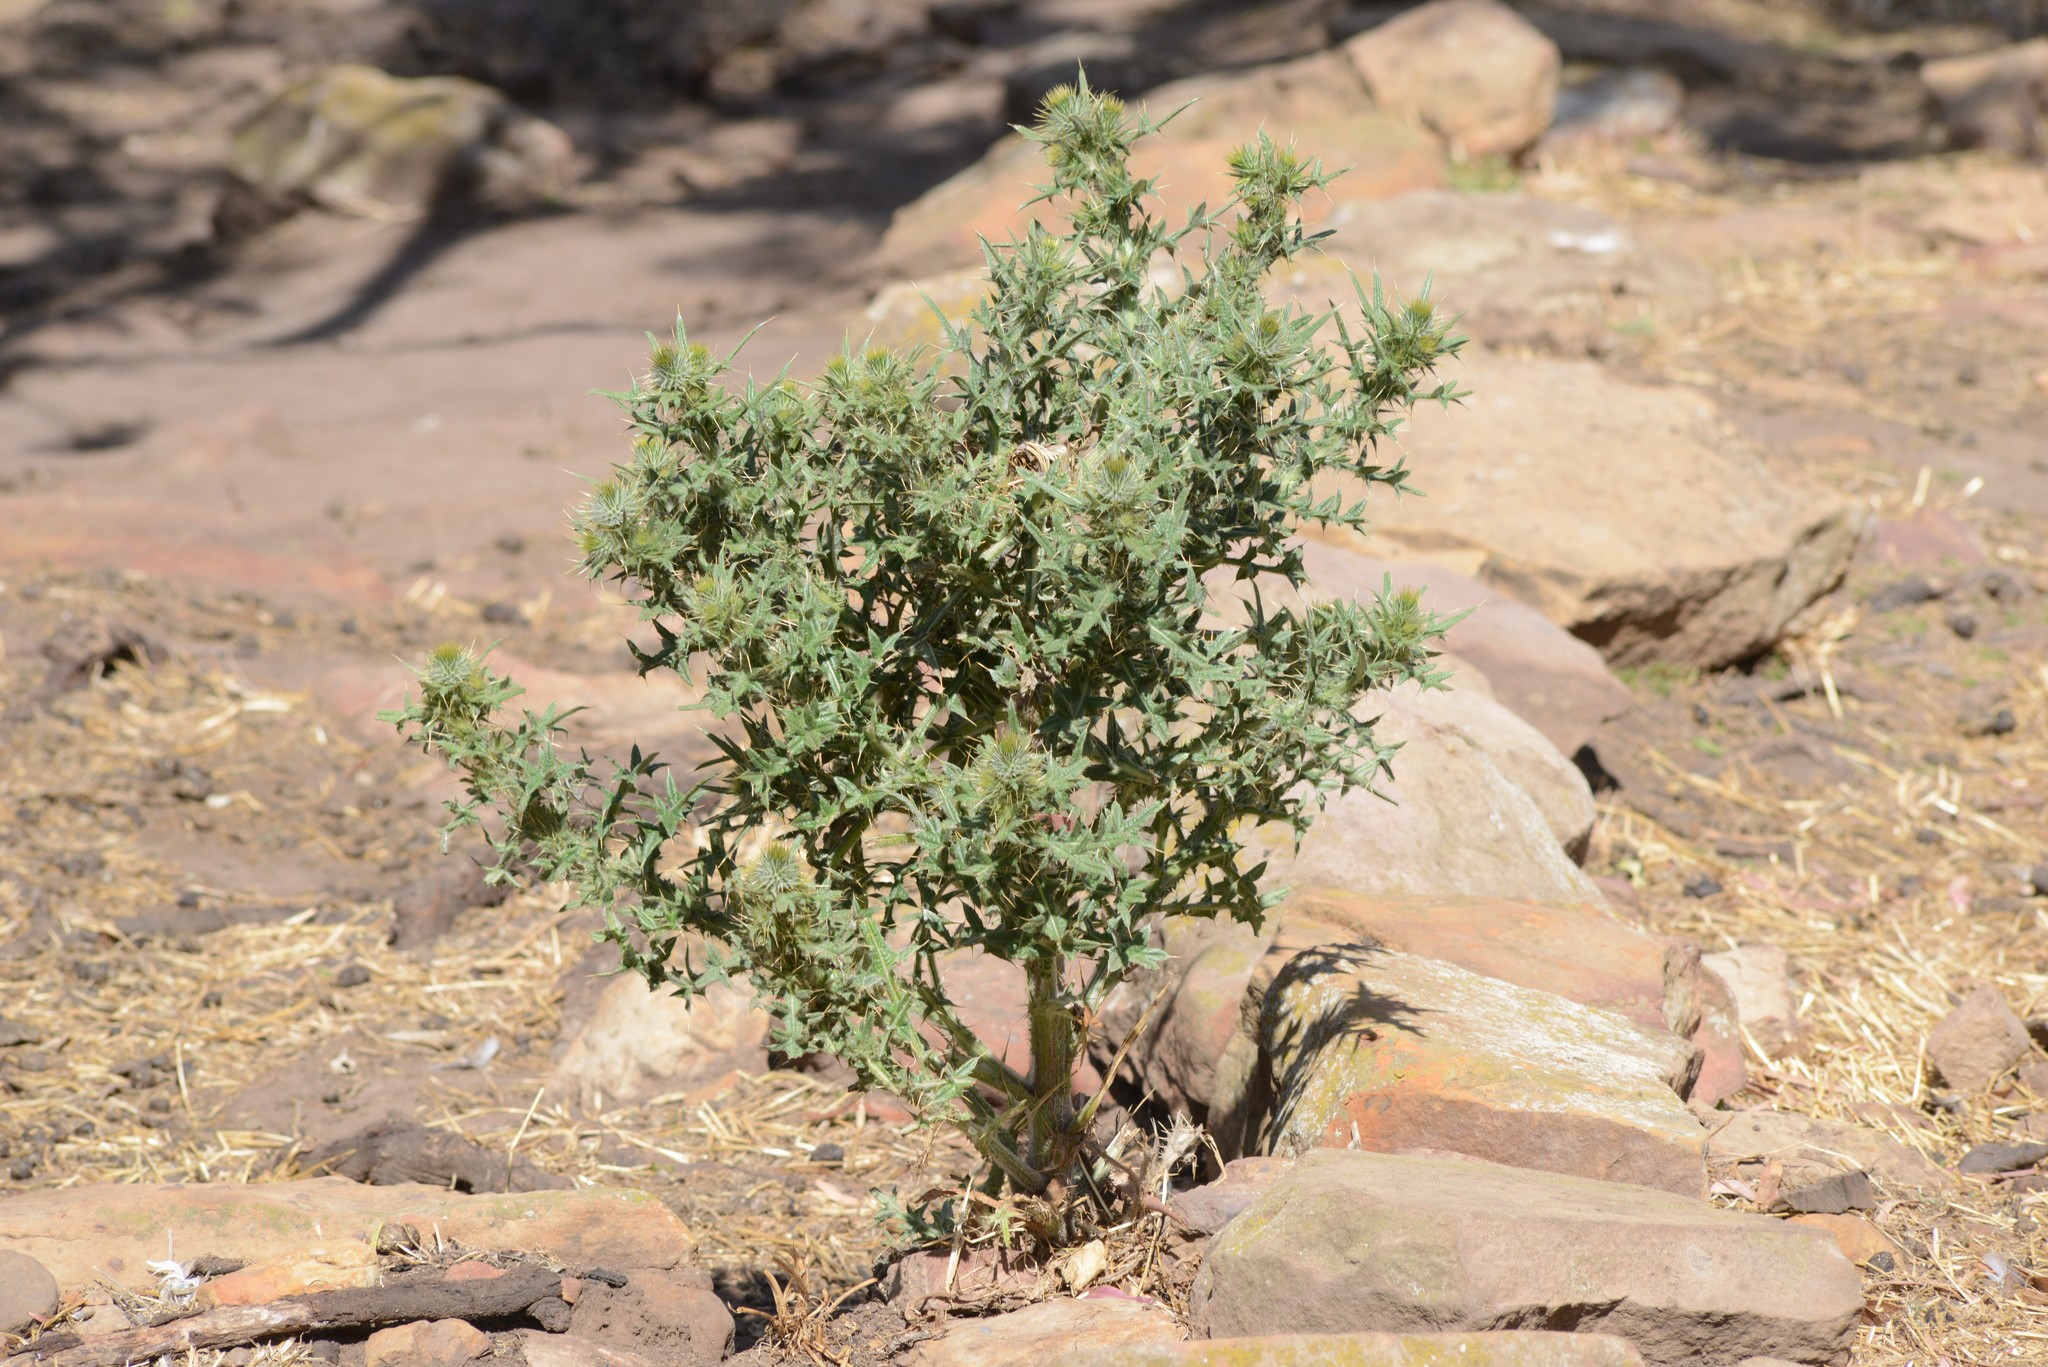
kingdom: Plantae
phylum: Tracheophyta
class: Magnoliopsida
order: Asterales
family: Asteraceae
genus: Cirsium
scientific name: Cirsium vulgare
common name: Bull thistle
